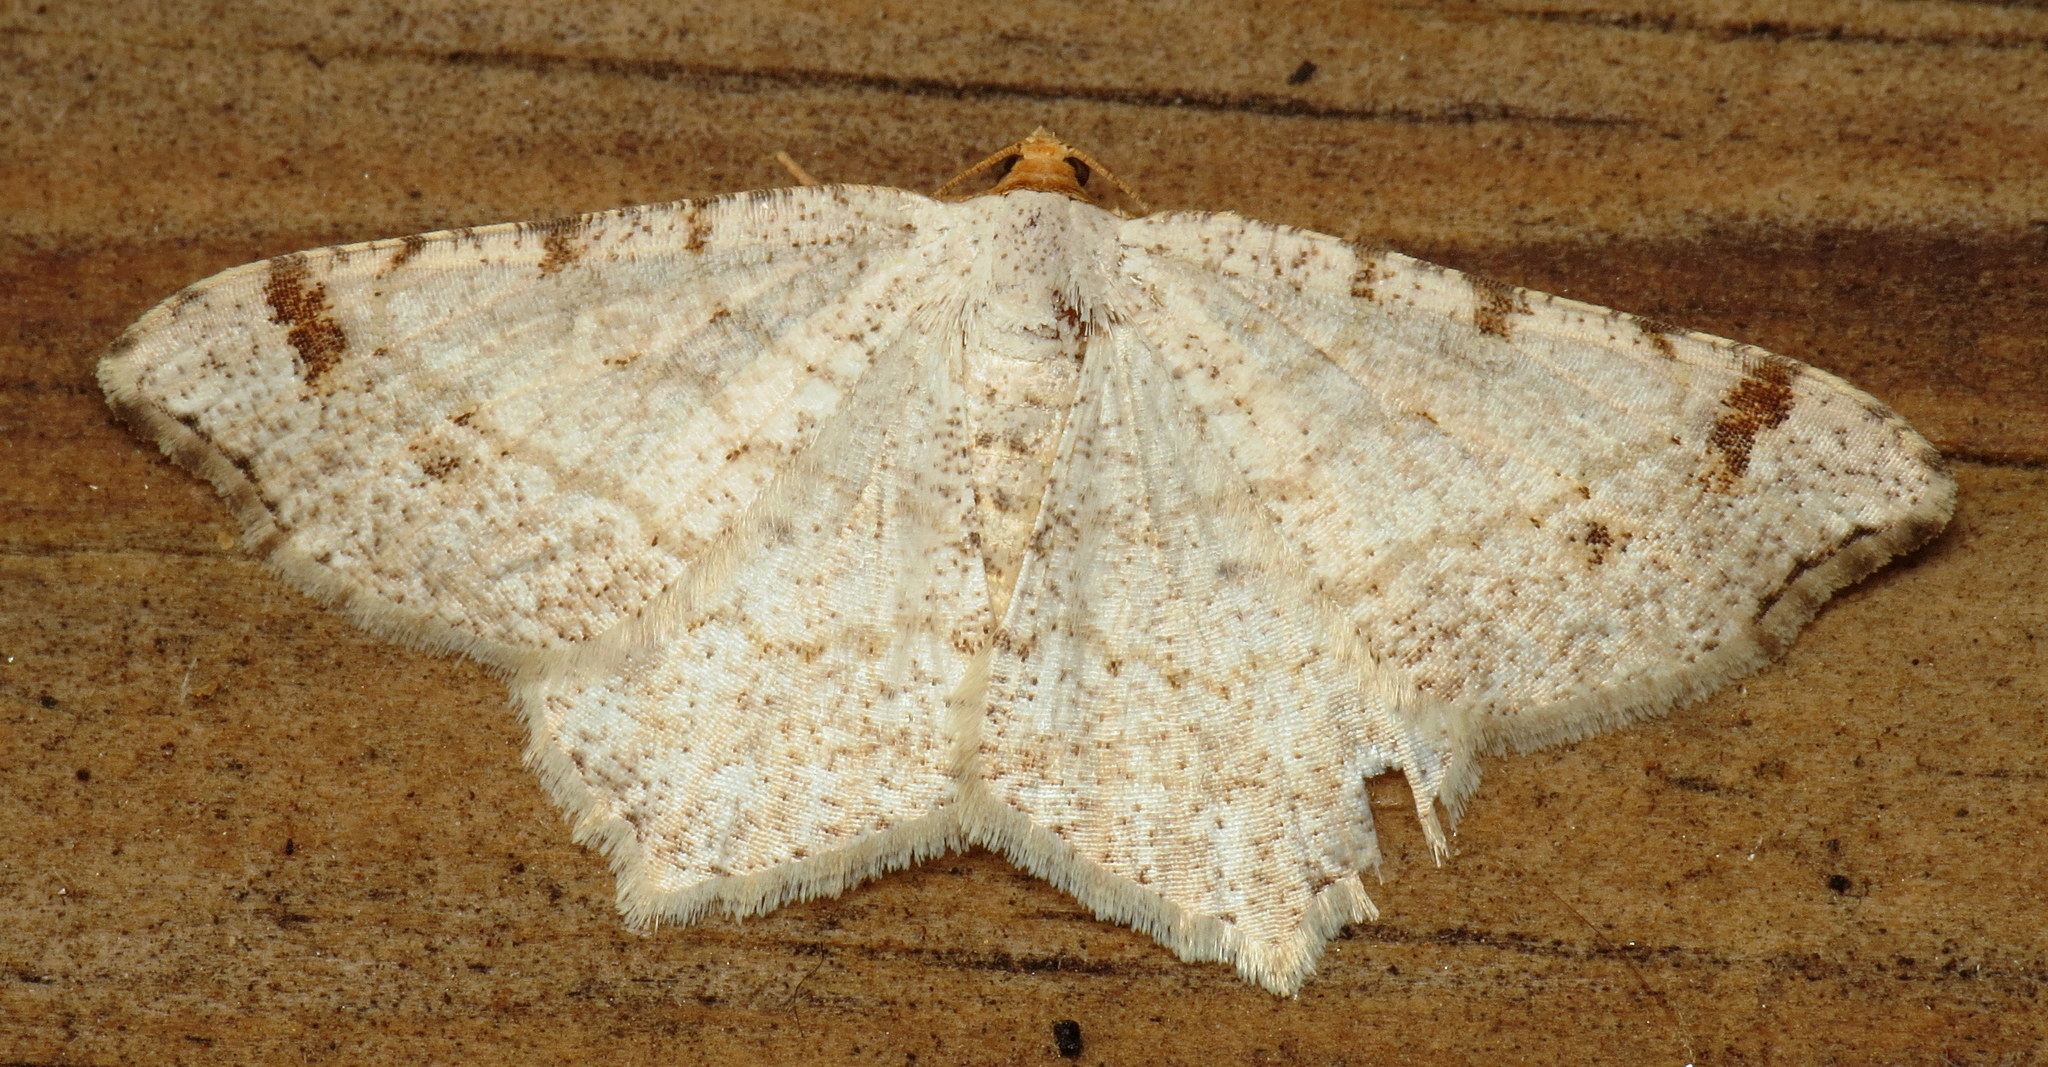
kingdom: Animalia
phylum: Arthropoda
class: Insecta
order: Lepidoptera
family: Geometridae
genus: Macaria
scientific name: Macaria bisignata
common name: Red-headed inchworm
